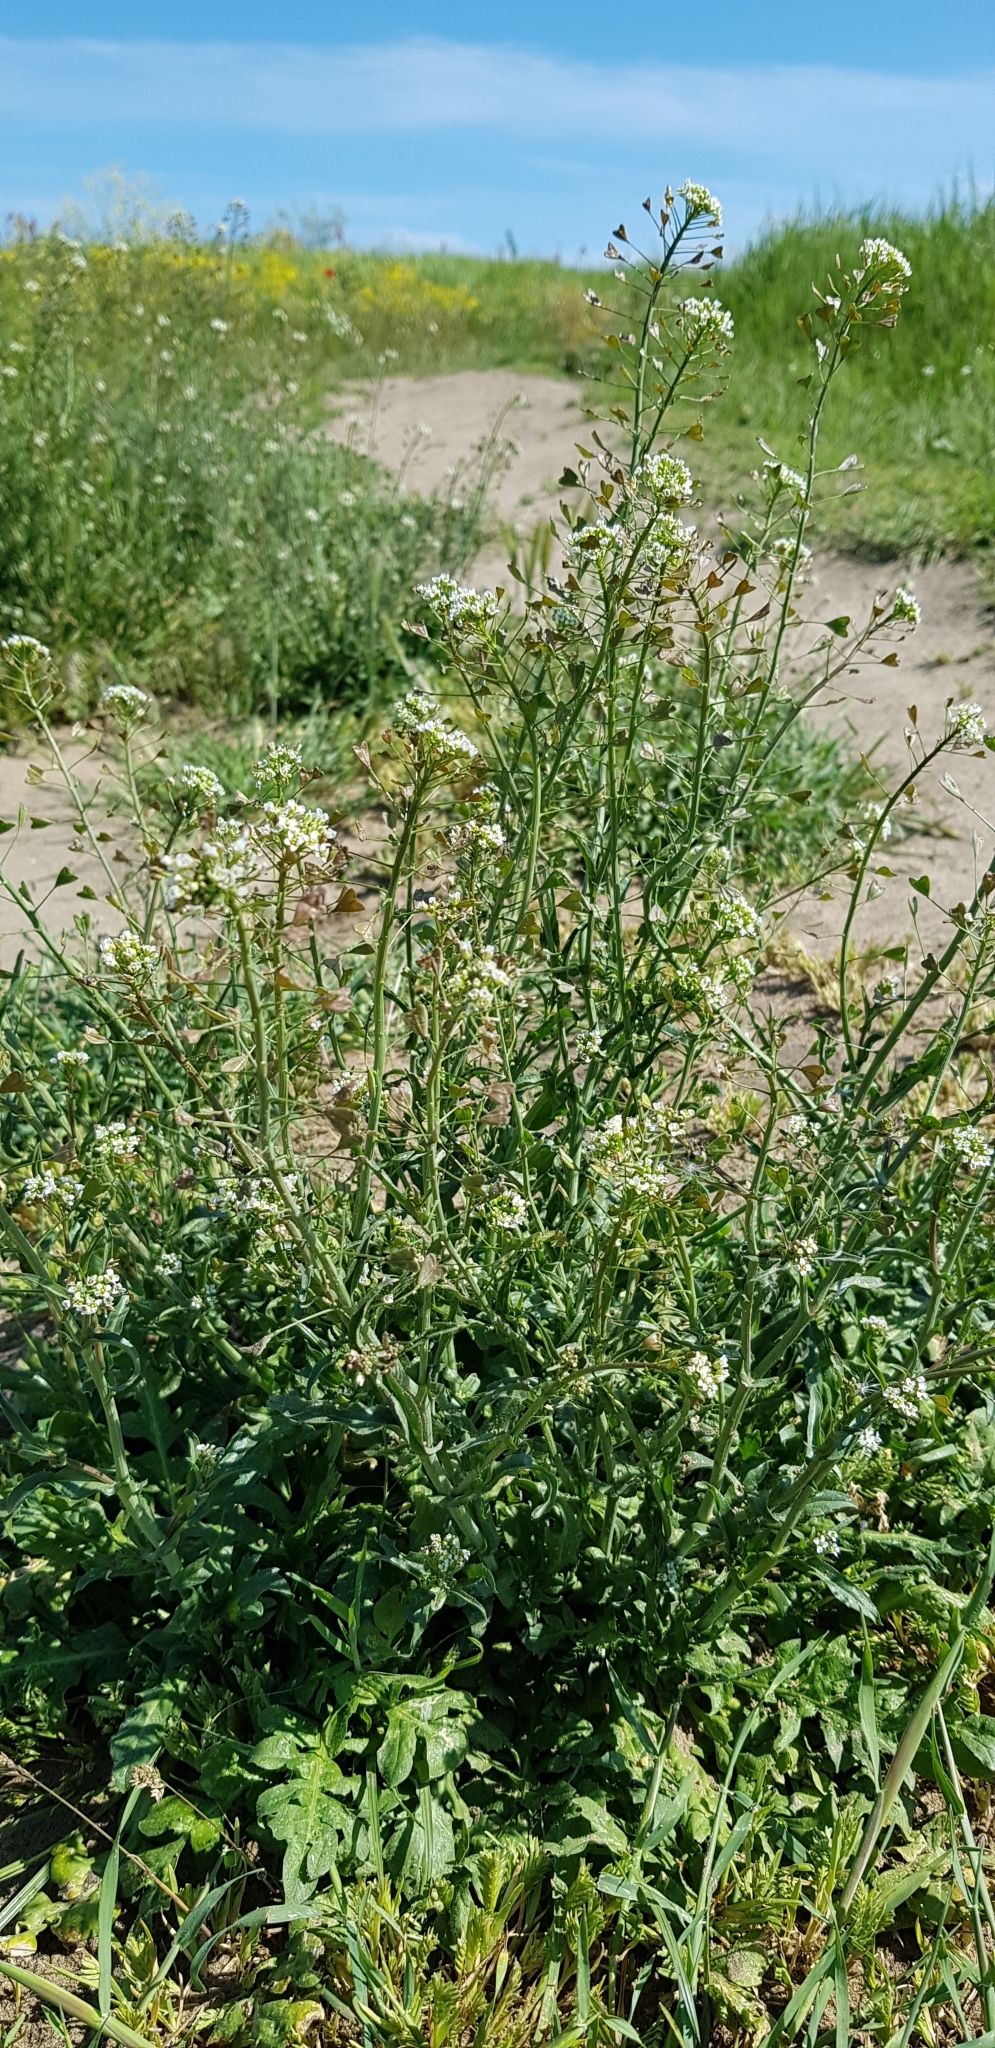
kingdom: Plantae
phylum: Tracheophyta
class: Magnoliopsida
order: Brassicales
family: Brassicaceae
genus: Capsella
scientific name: Capsella bursa-pastoris
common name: Shepherd's purse
